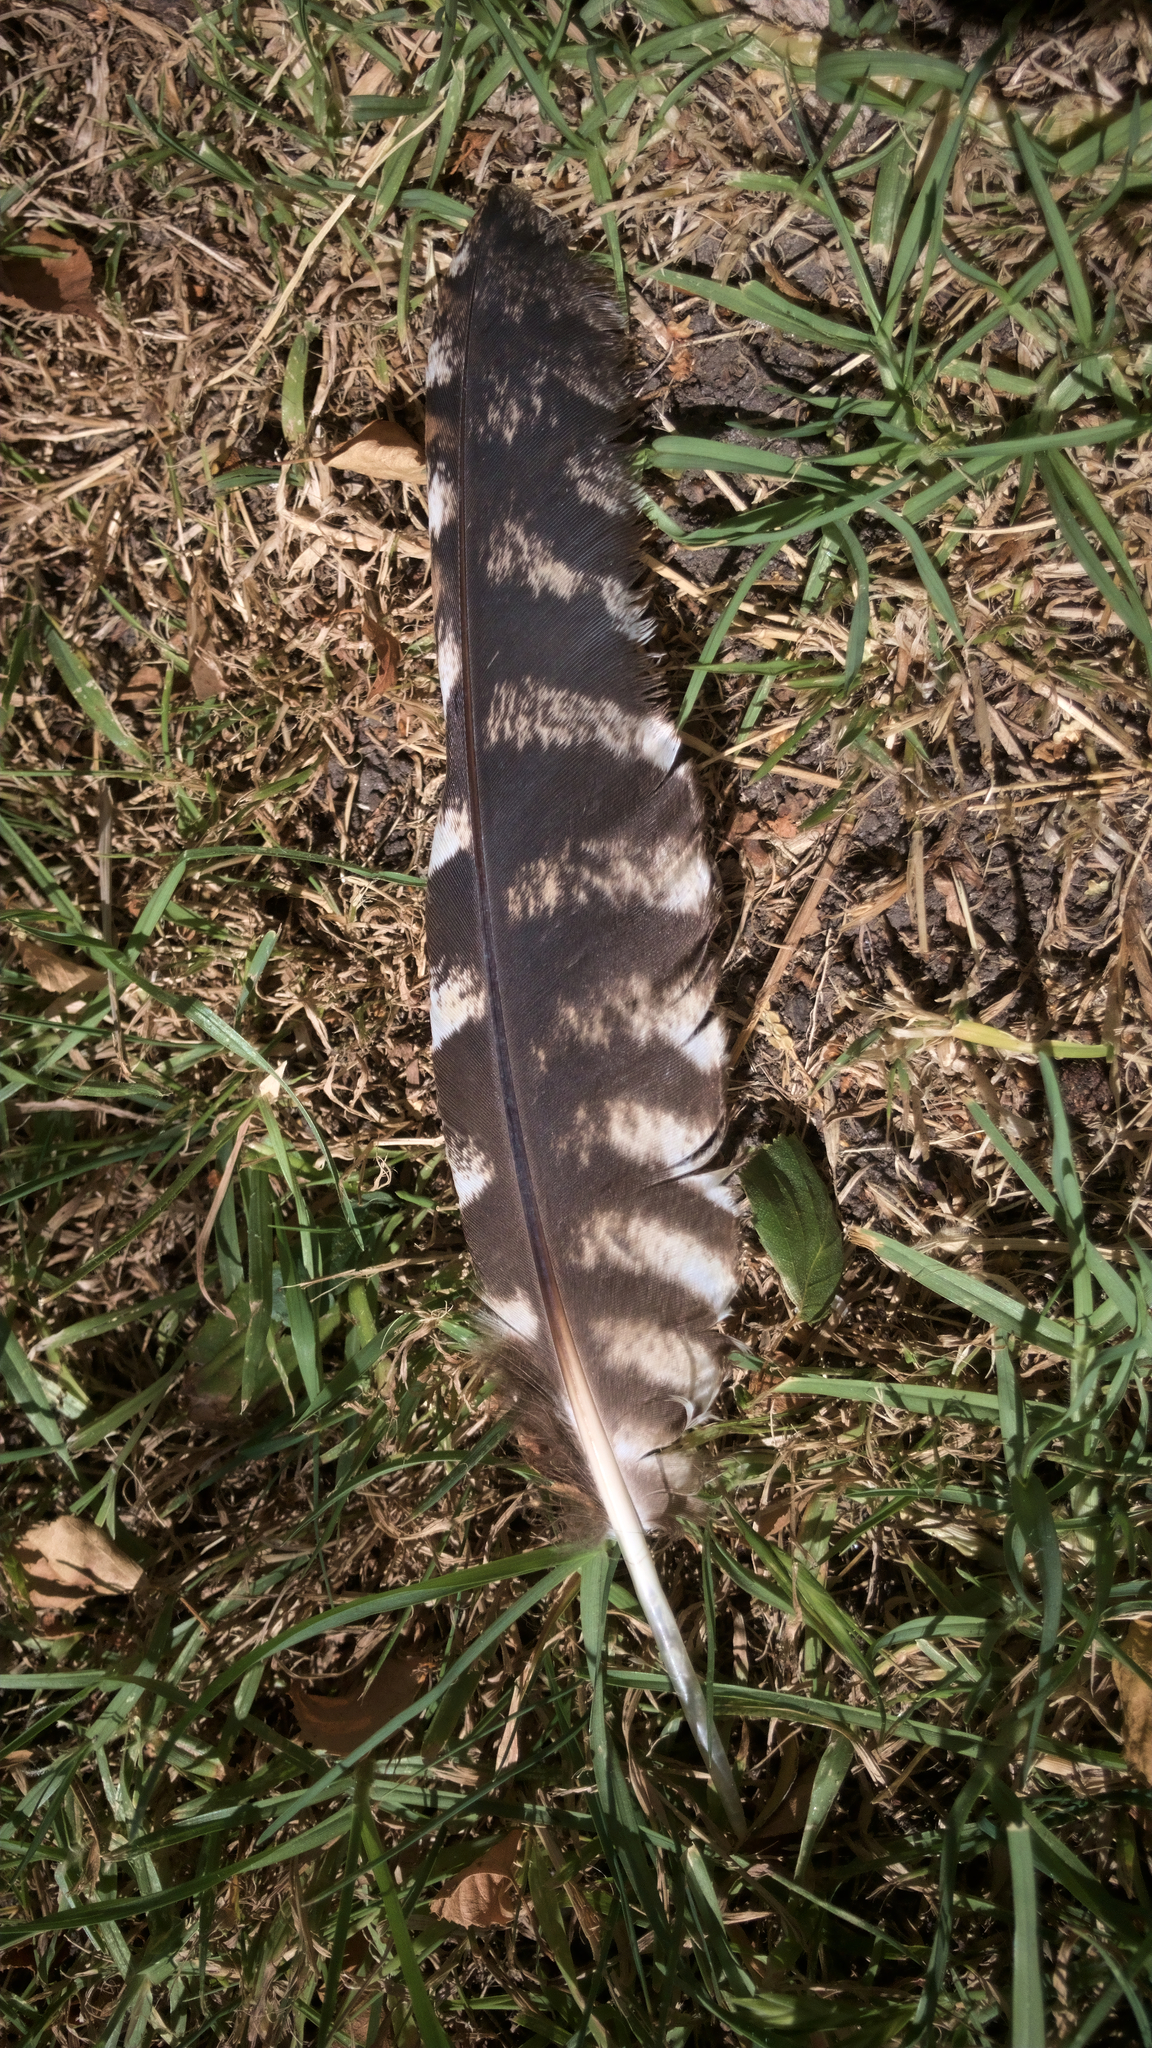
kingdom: Animalia
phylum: Chordata
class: Aves
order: Caprimulgiformes
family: Podargidae
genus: Podargus
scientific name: Podargus strigoides
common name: Tawny frogmouth
